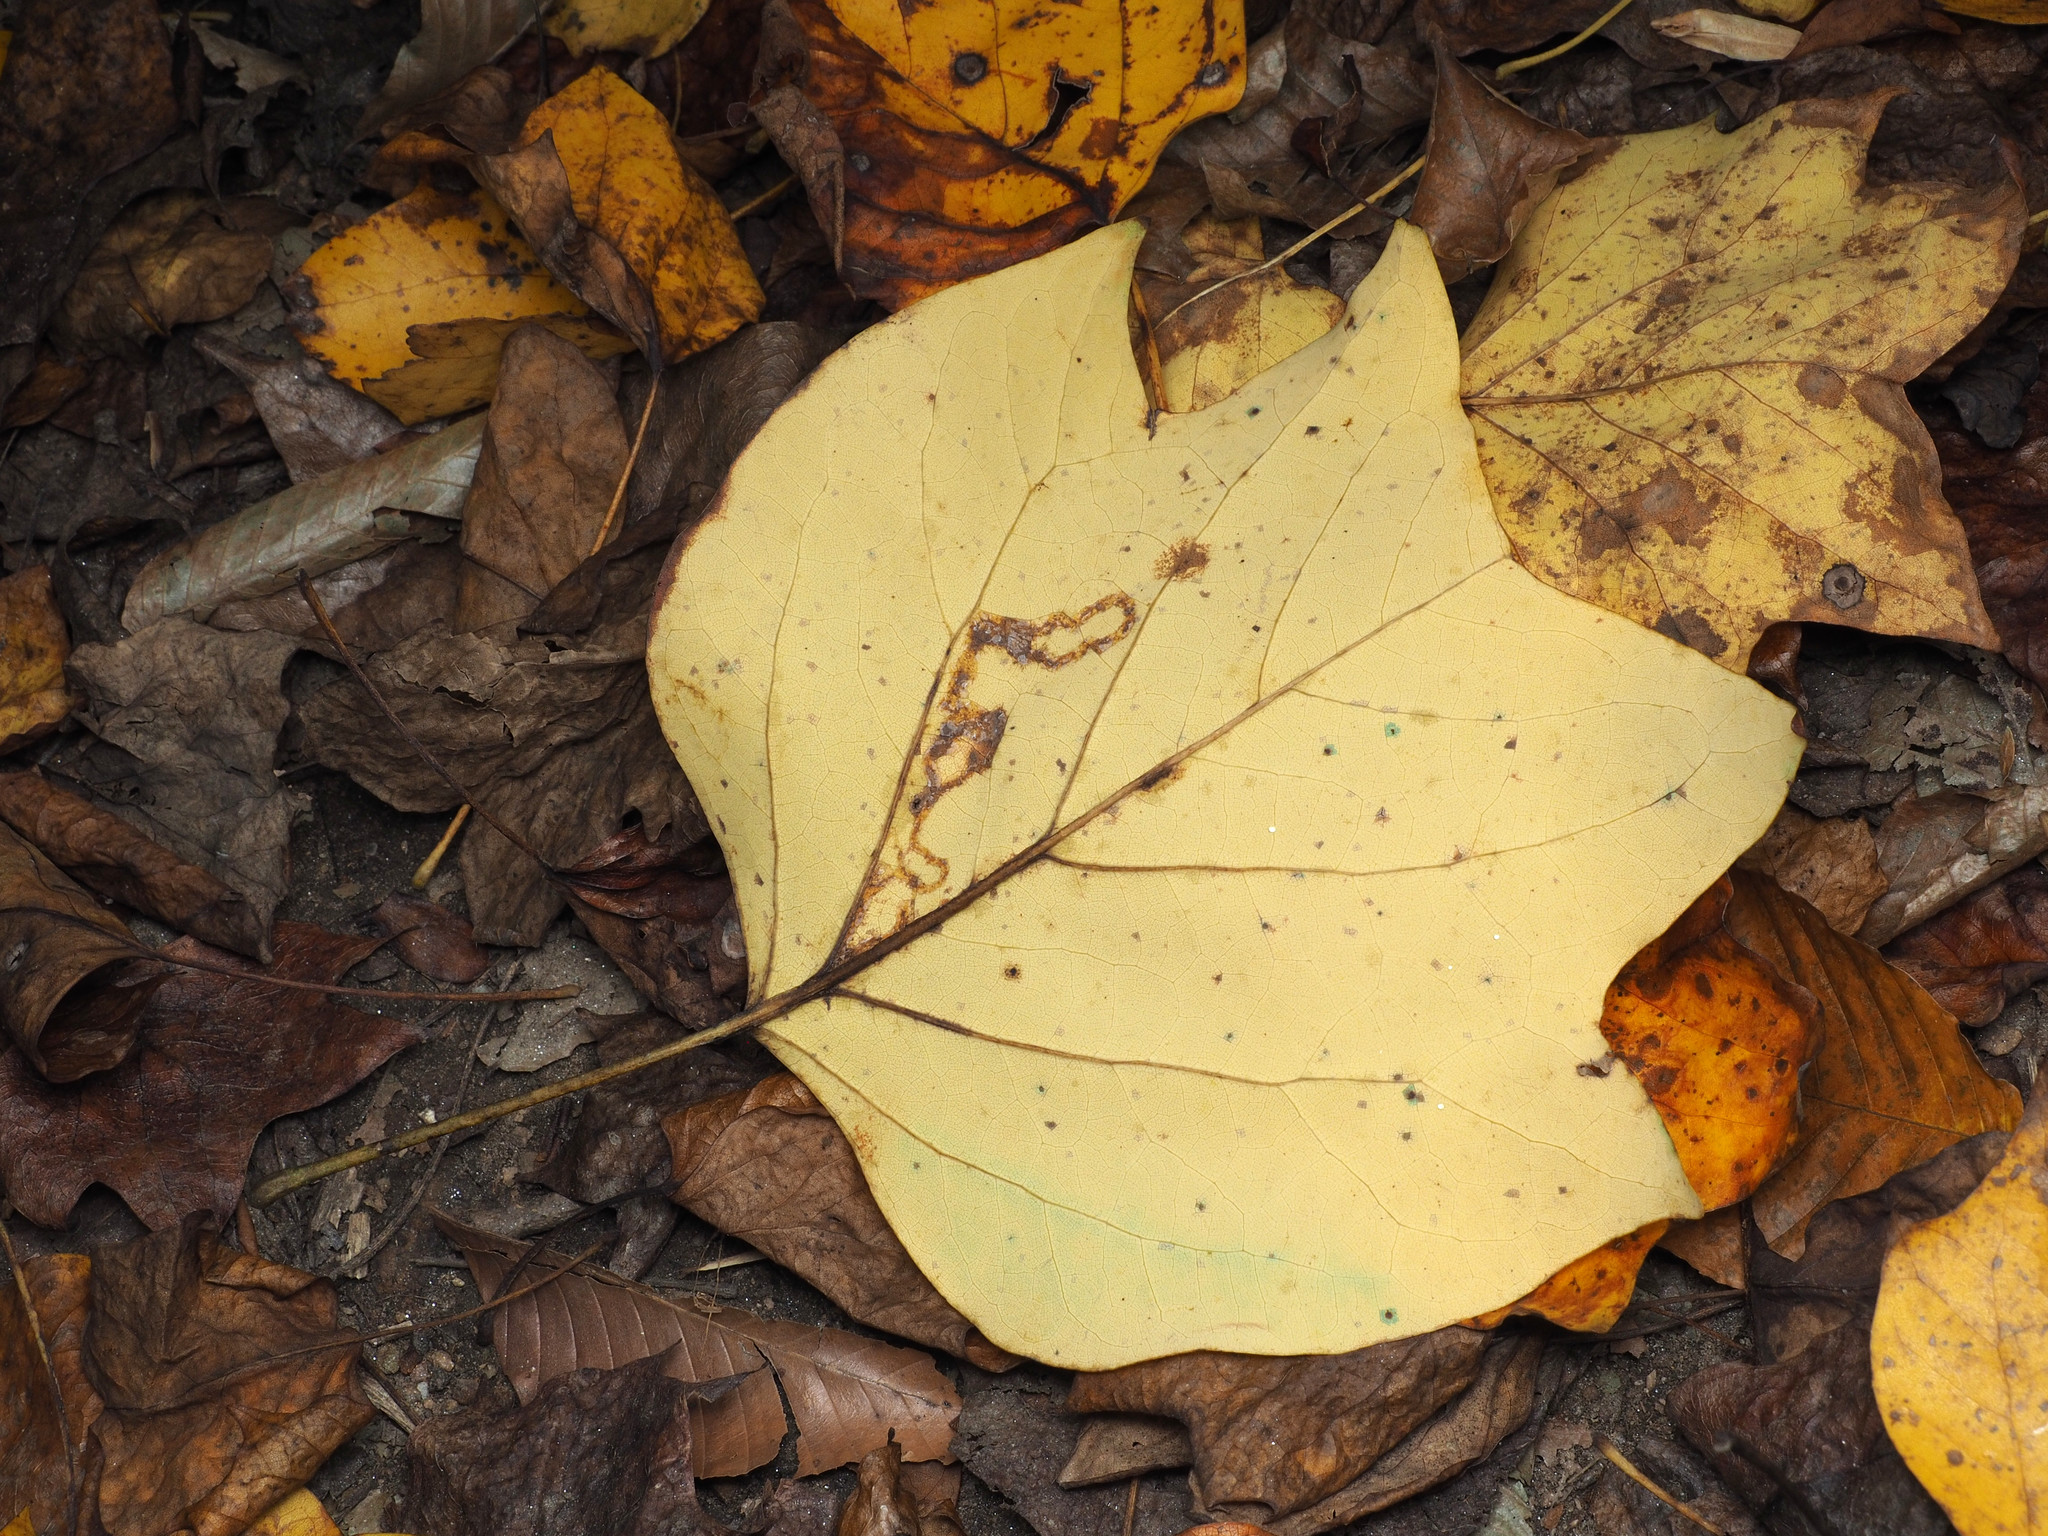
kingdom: Animalia
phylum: Arthropoda
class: Insecta
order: Lepidoptera
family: Gracillariidae
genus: Phyllocnistis
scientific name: Phyllocnistis liriodendronella
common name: Tulip tree leaf miner
